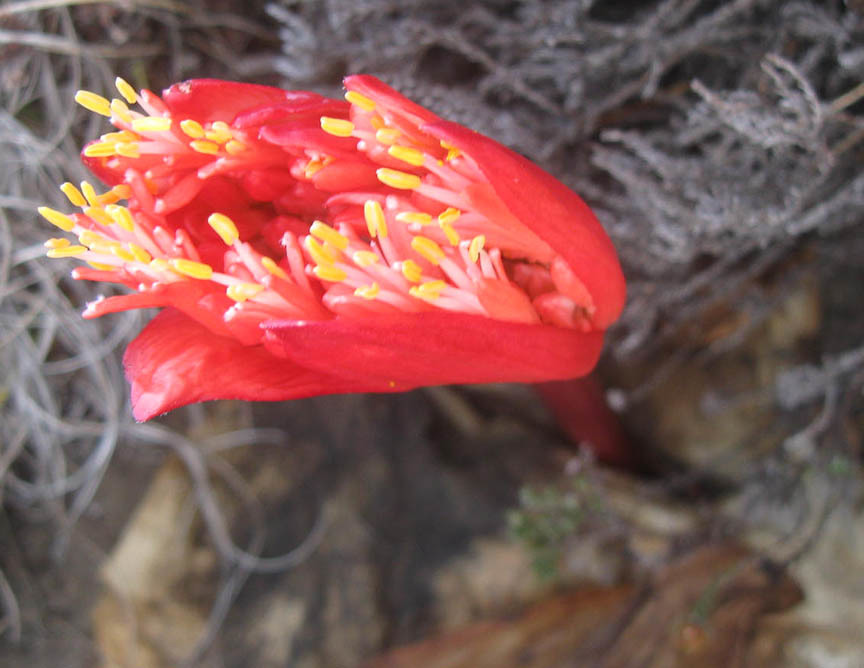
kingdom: Plantae
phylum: Tracheophyta
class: Liliopsida
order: Asparagales
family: Amaryllidaceae
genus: Haemanthus
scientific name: Haemanthus sanguineus
